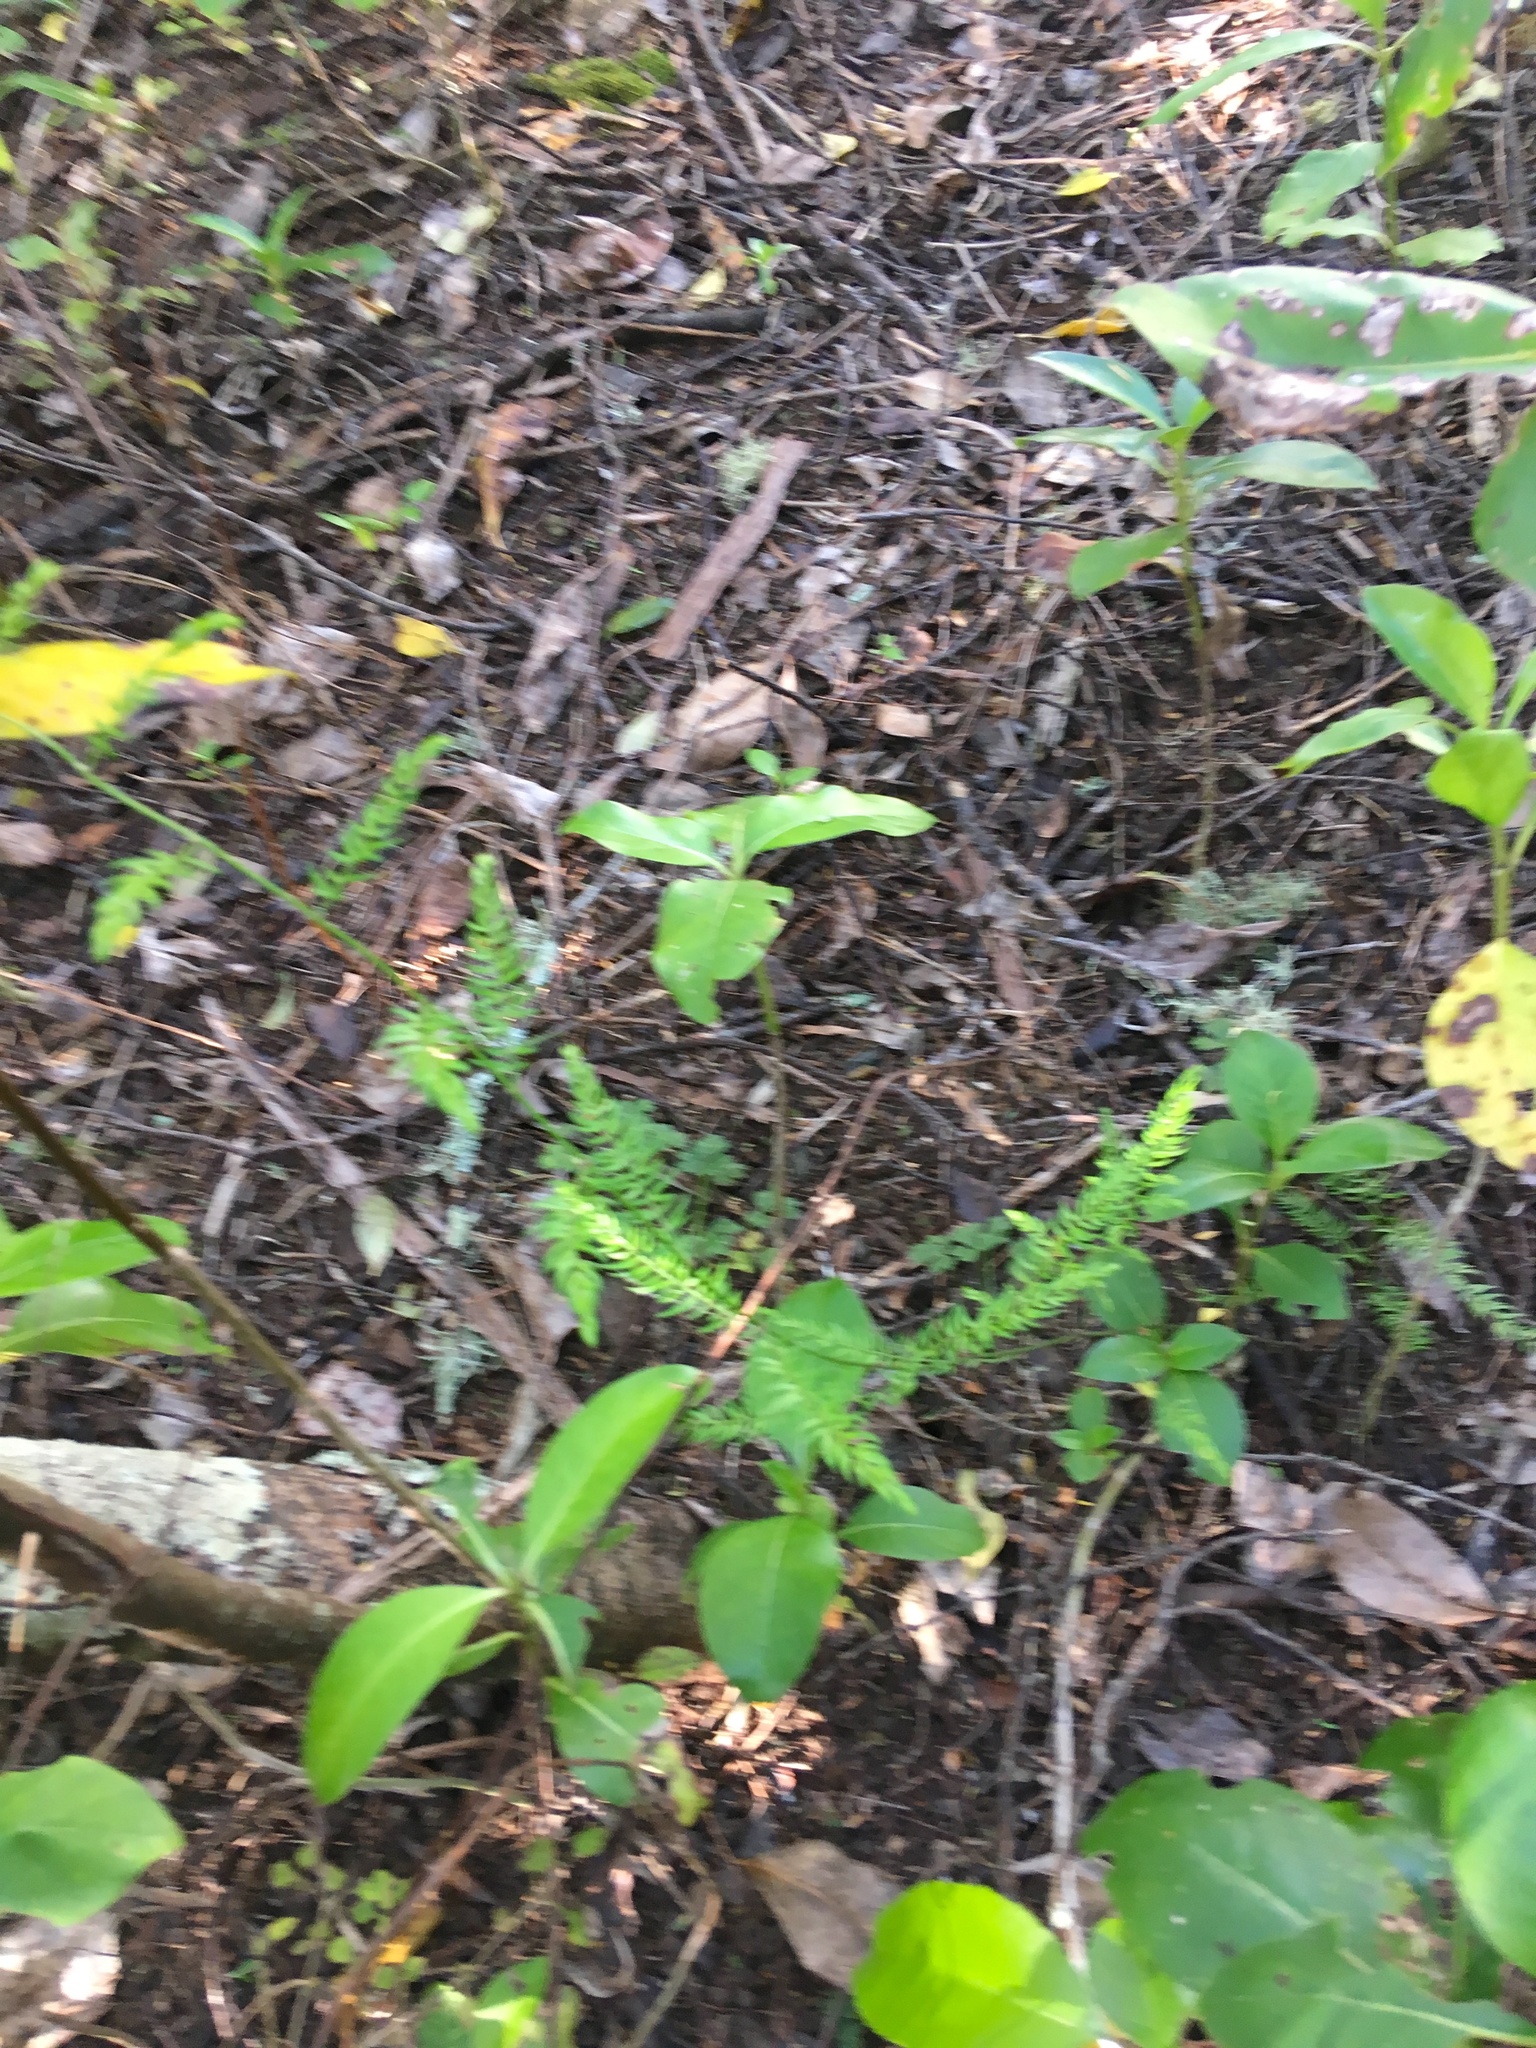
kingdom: Plantae
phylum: Tracheophyta
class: Liliopsida
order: Asparagales
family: Asparagaceae
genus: Asparagus
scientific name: Asparagus scandens
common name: Asparagus-fern
